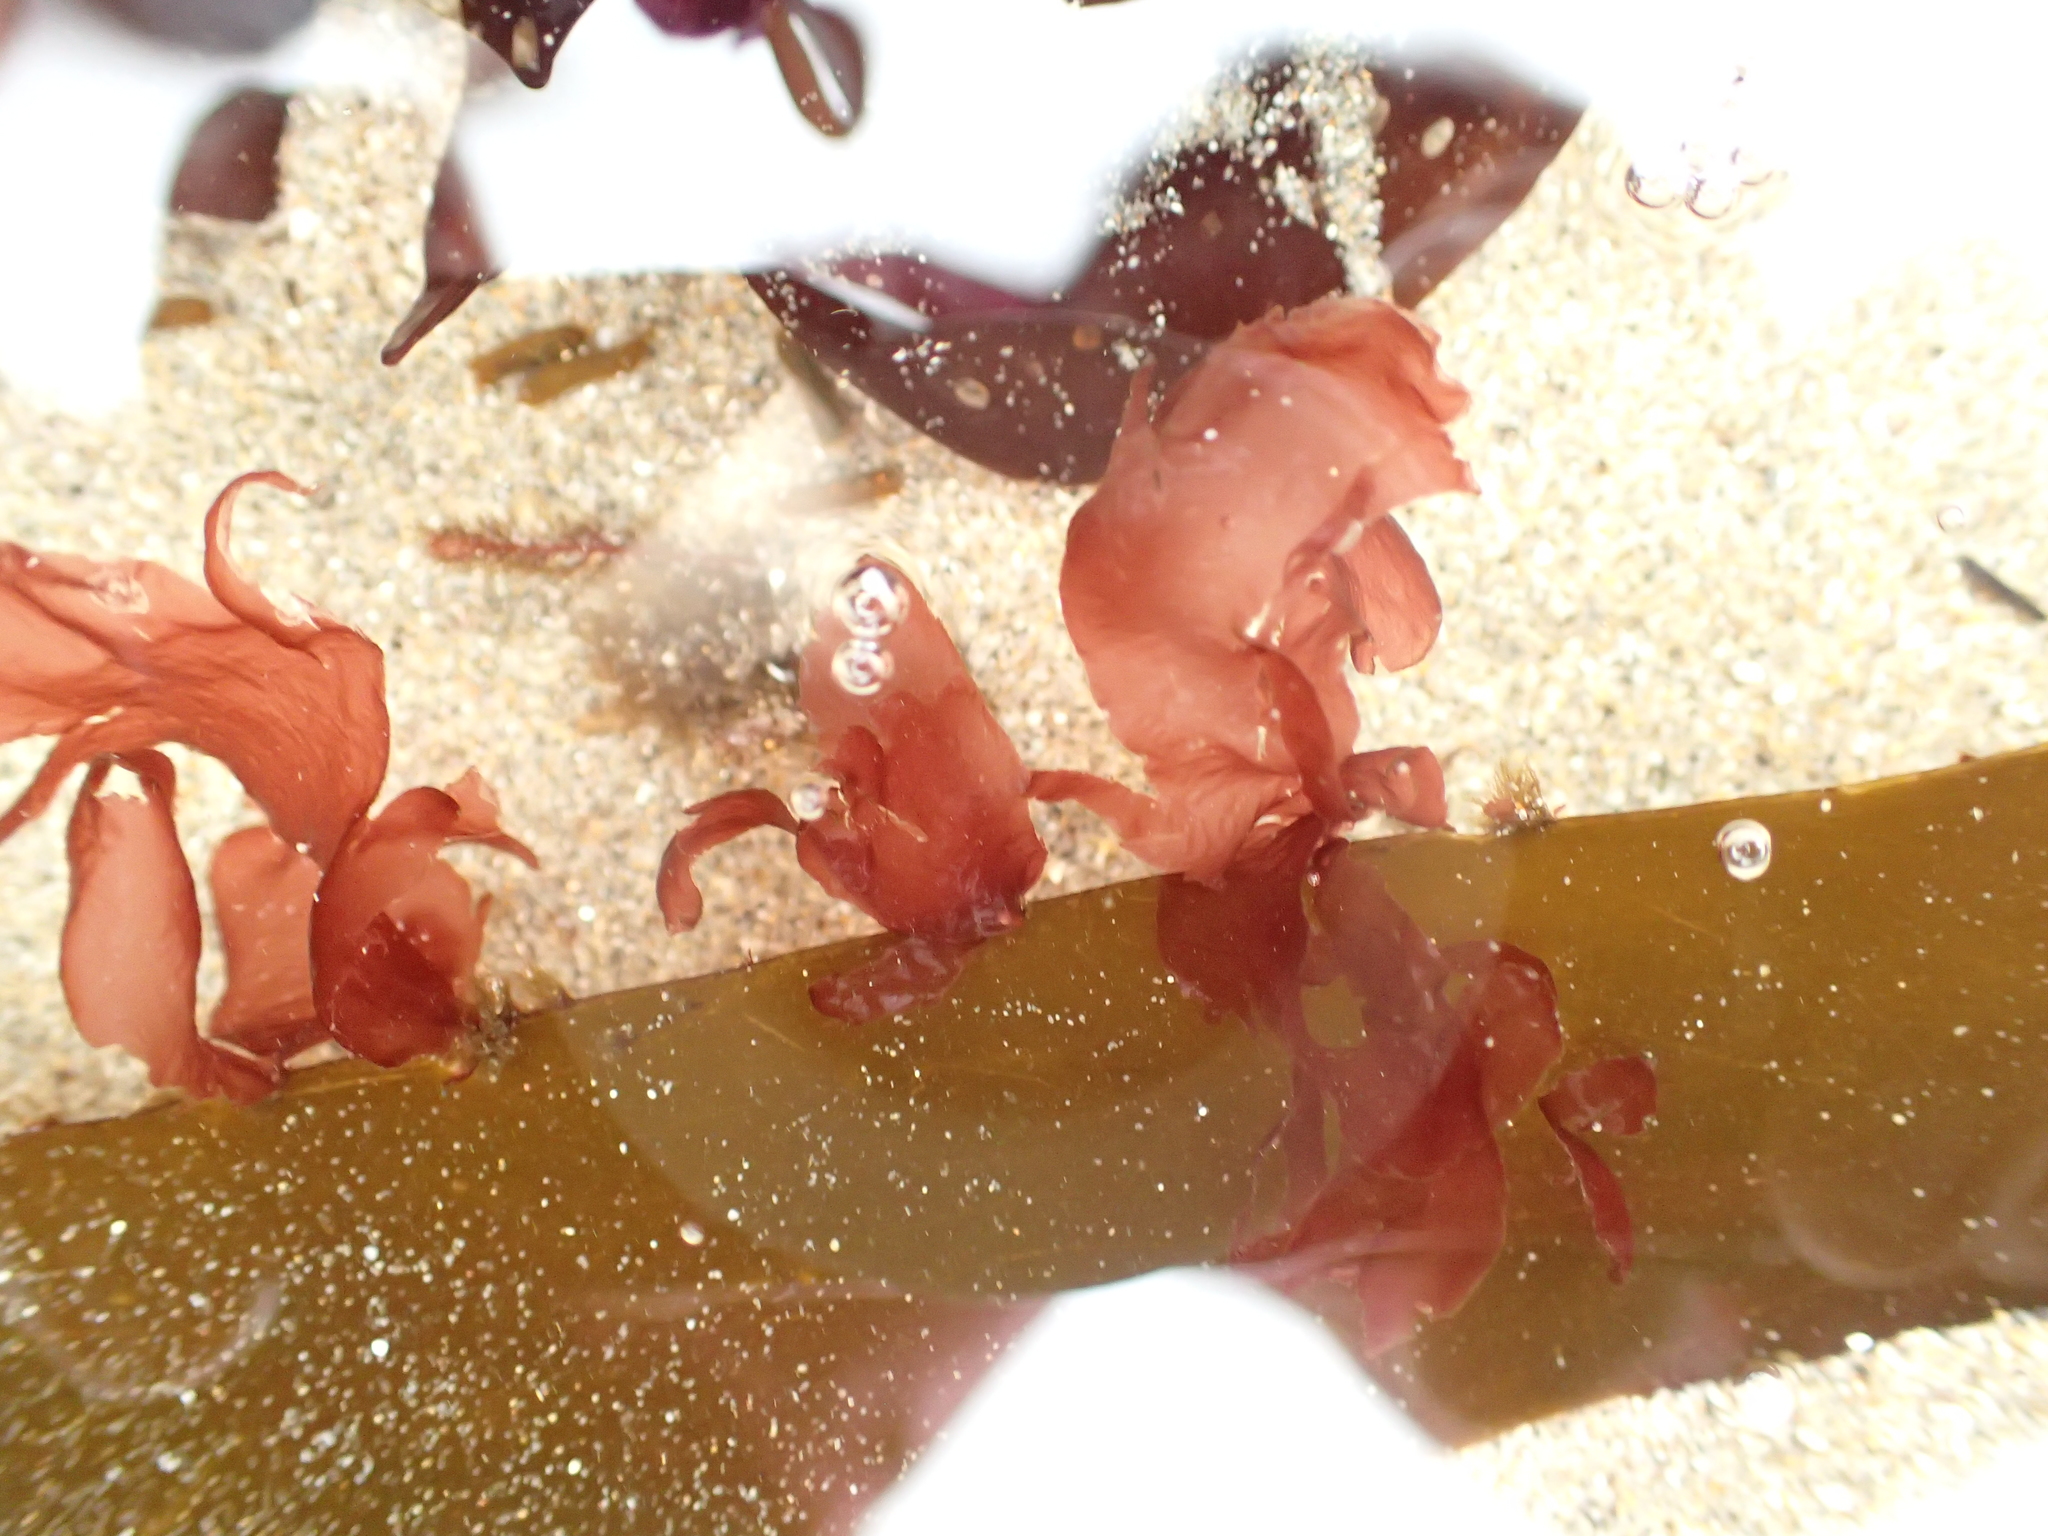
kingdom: Plantae
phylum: Rhodophyta
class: Compsopogonophyceae
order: Erythropeltidales
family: Erythrotrichiaceae
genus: Smithora
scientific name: Smithora naiadum
